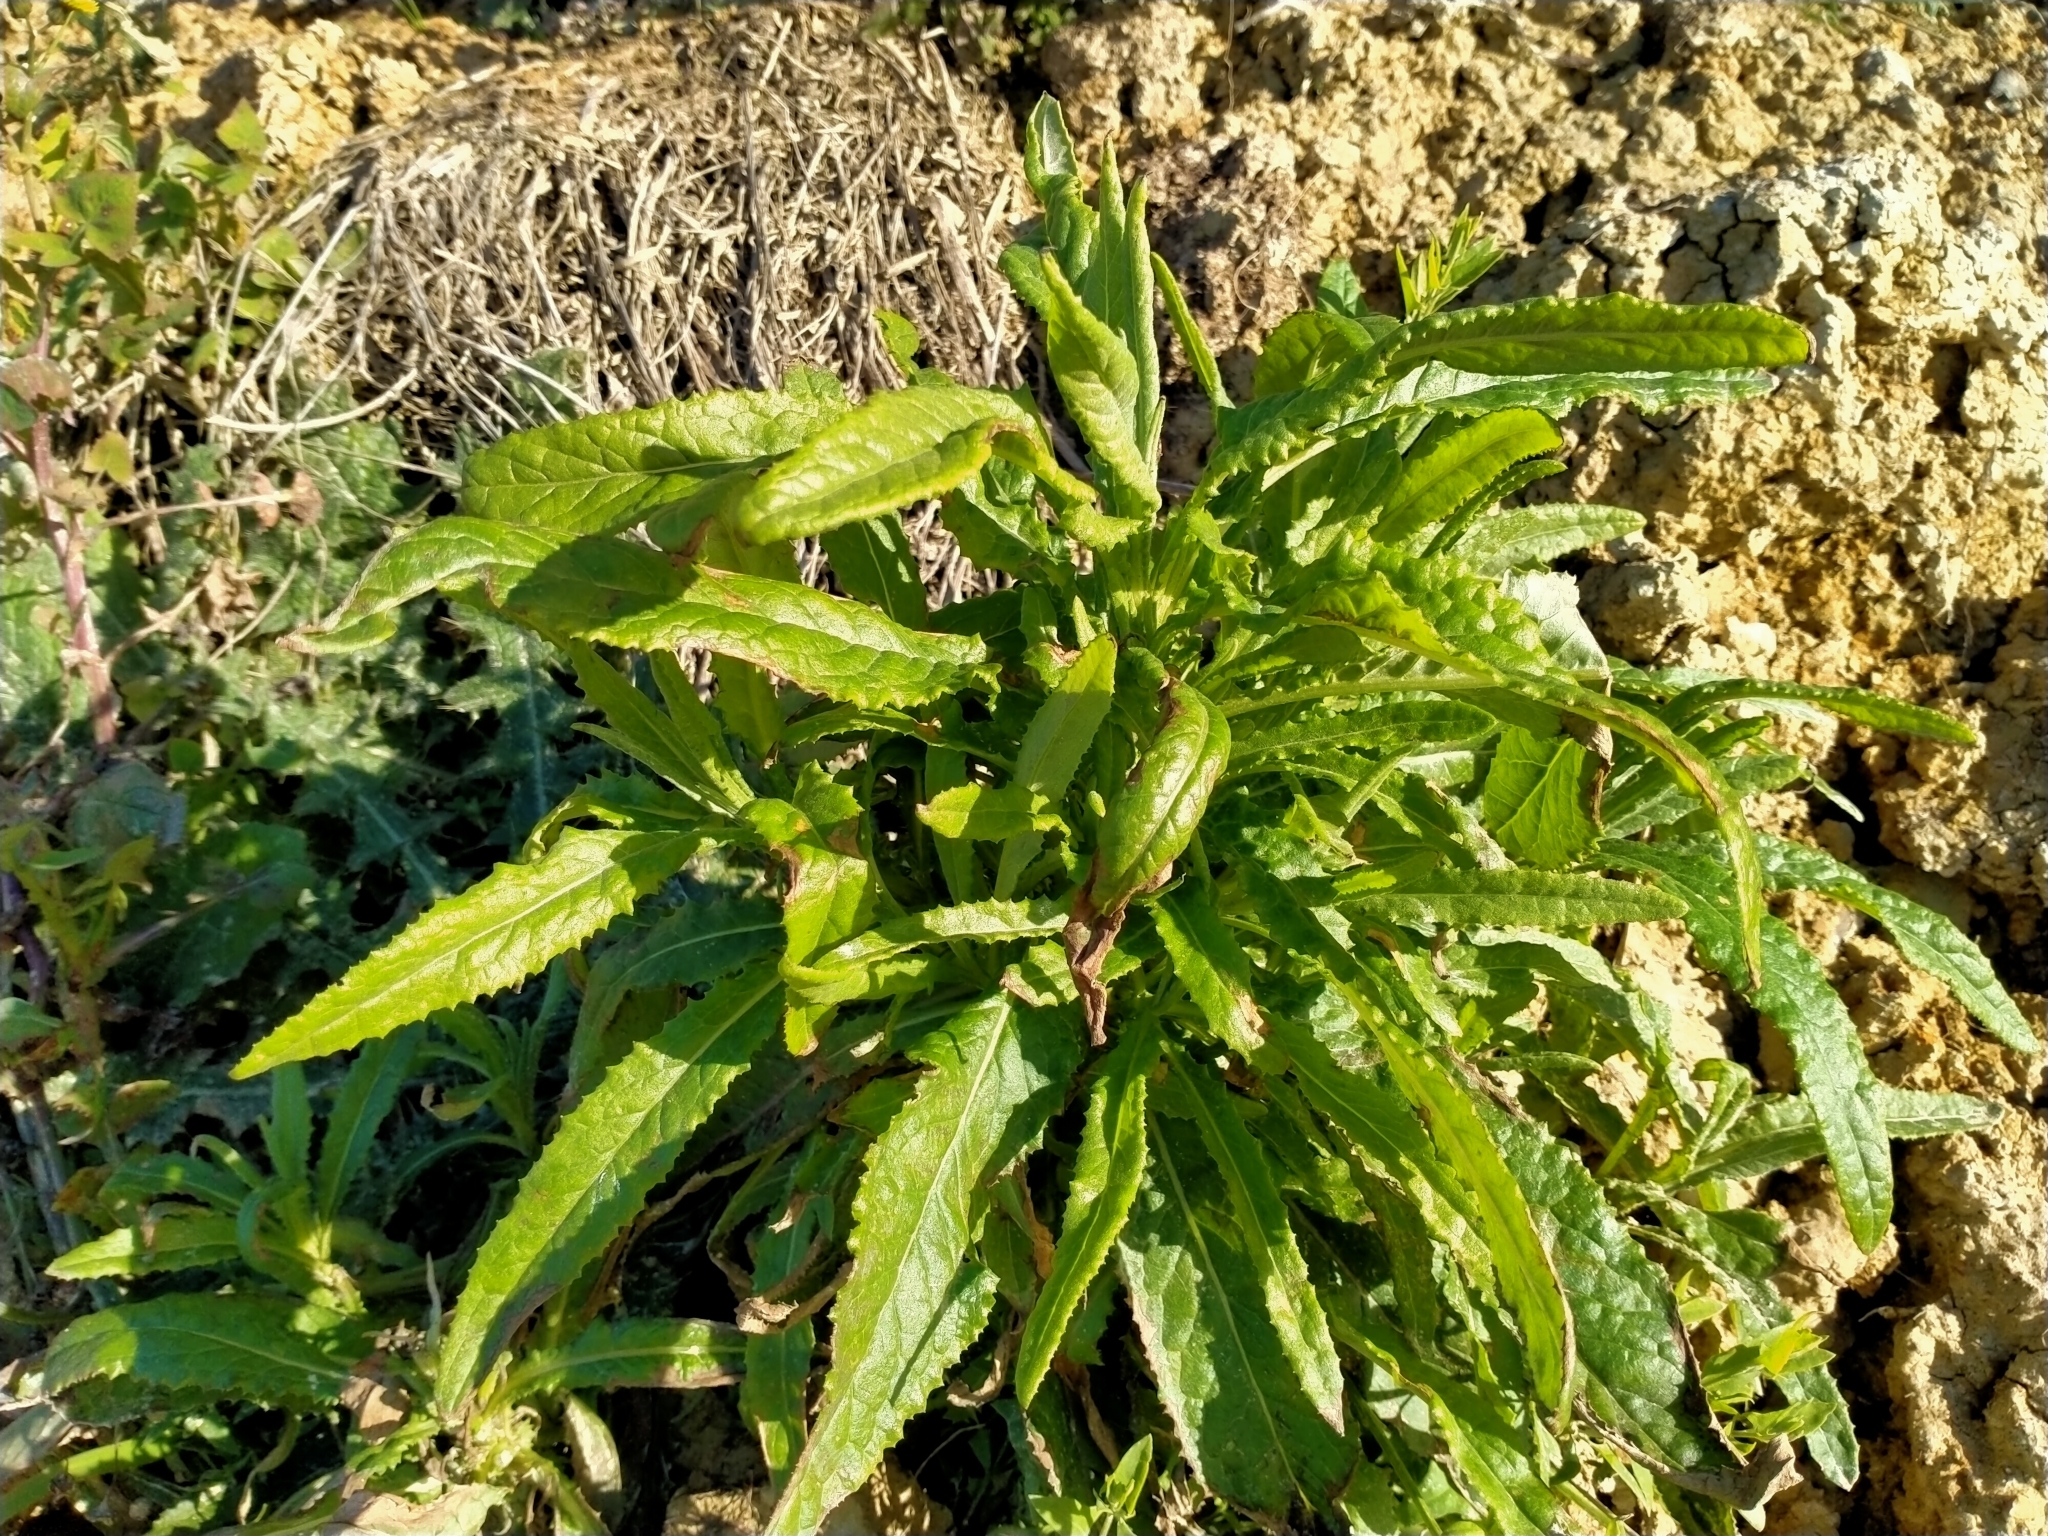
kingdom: Plantae
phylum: Tracheophyta
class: Magnoliopsida
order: Asterales
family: Asteraceae
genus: Senecio
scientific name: Senecio minimus
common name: Toothed fireweed
